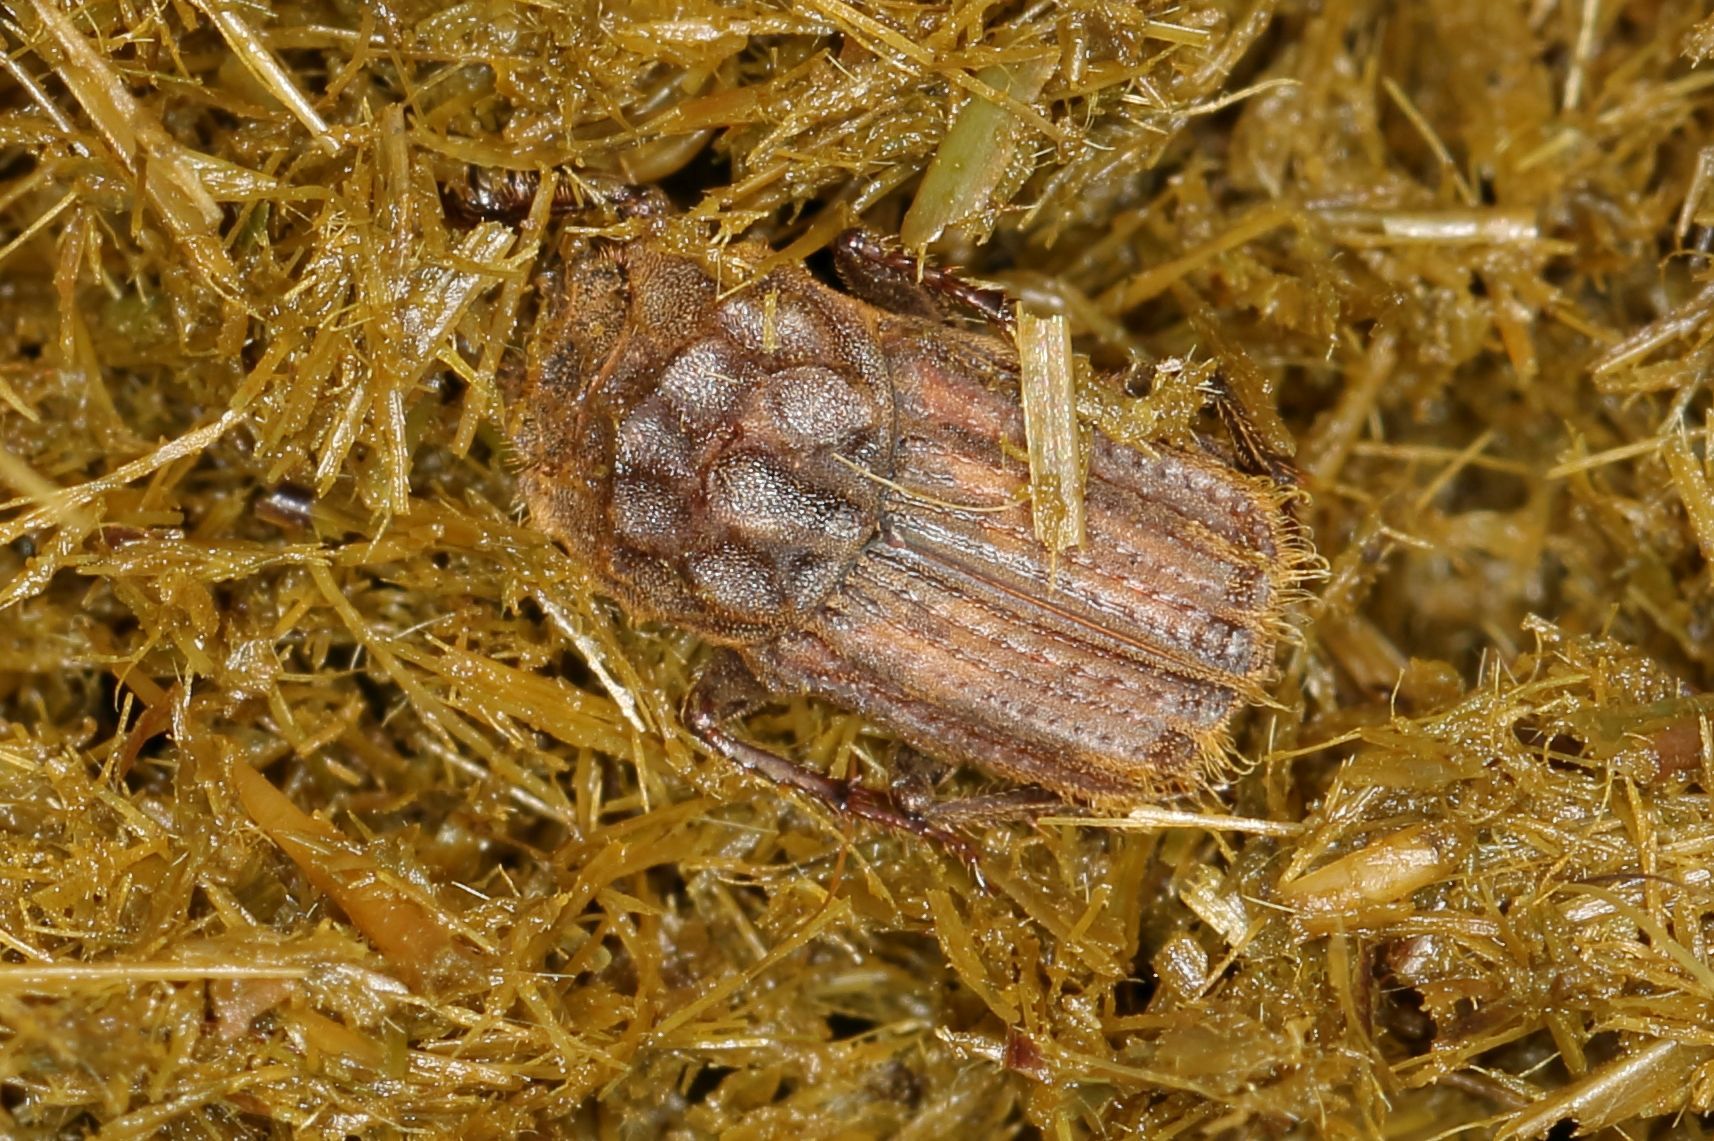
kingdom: Animalia
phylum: Arthropoda
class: Insecta
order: Coleoptera
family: Scarabaeidae
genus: Cyptochirus
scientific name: Cyptochirus ambiguus
